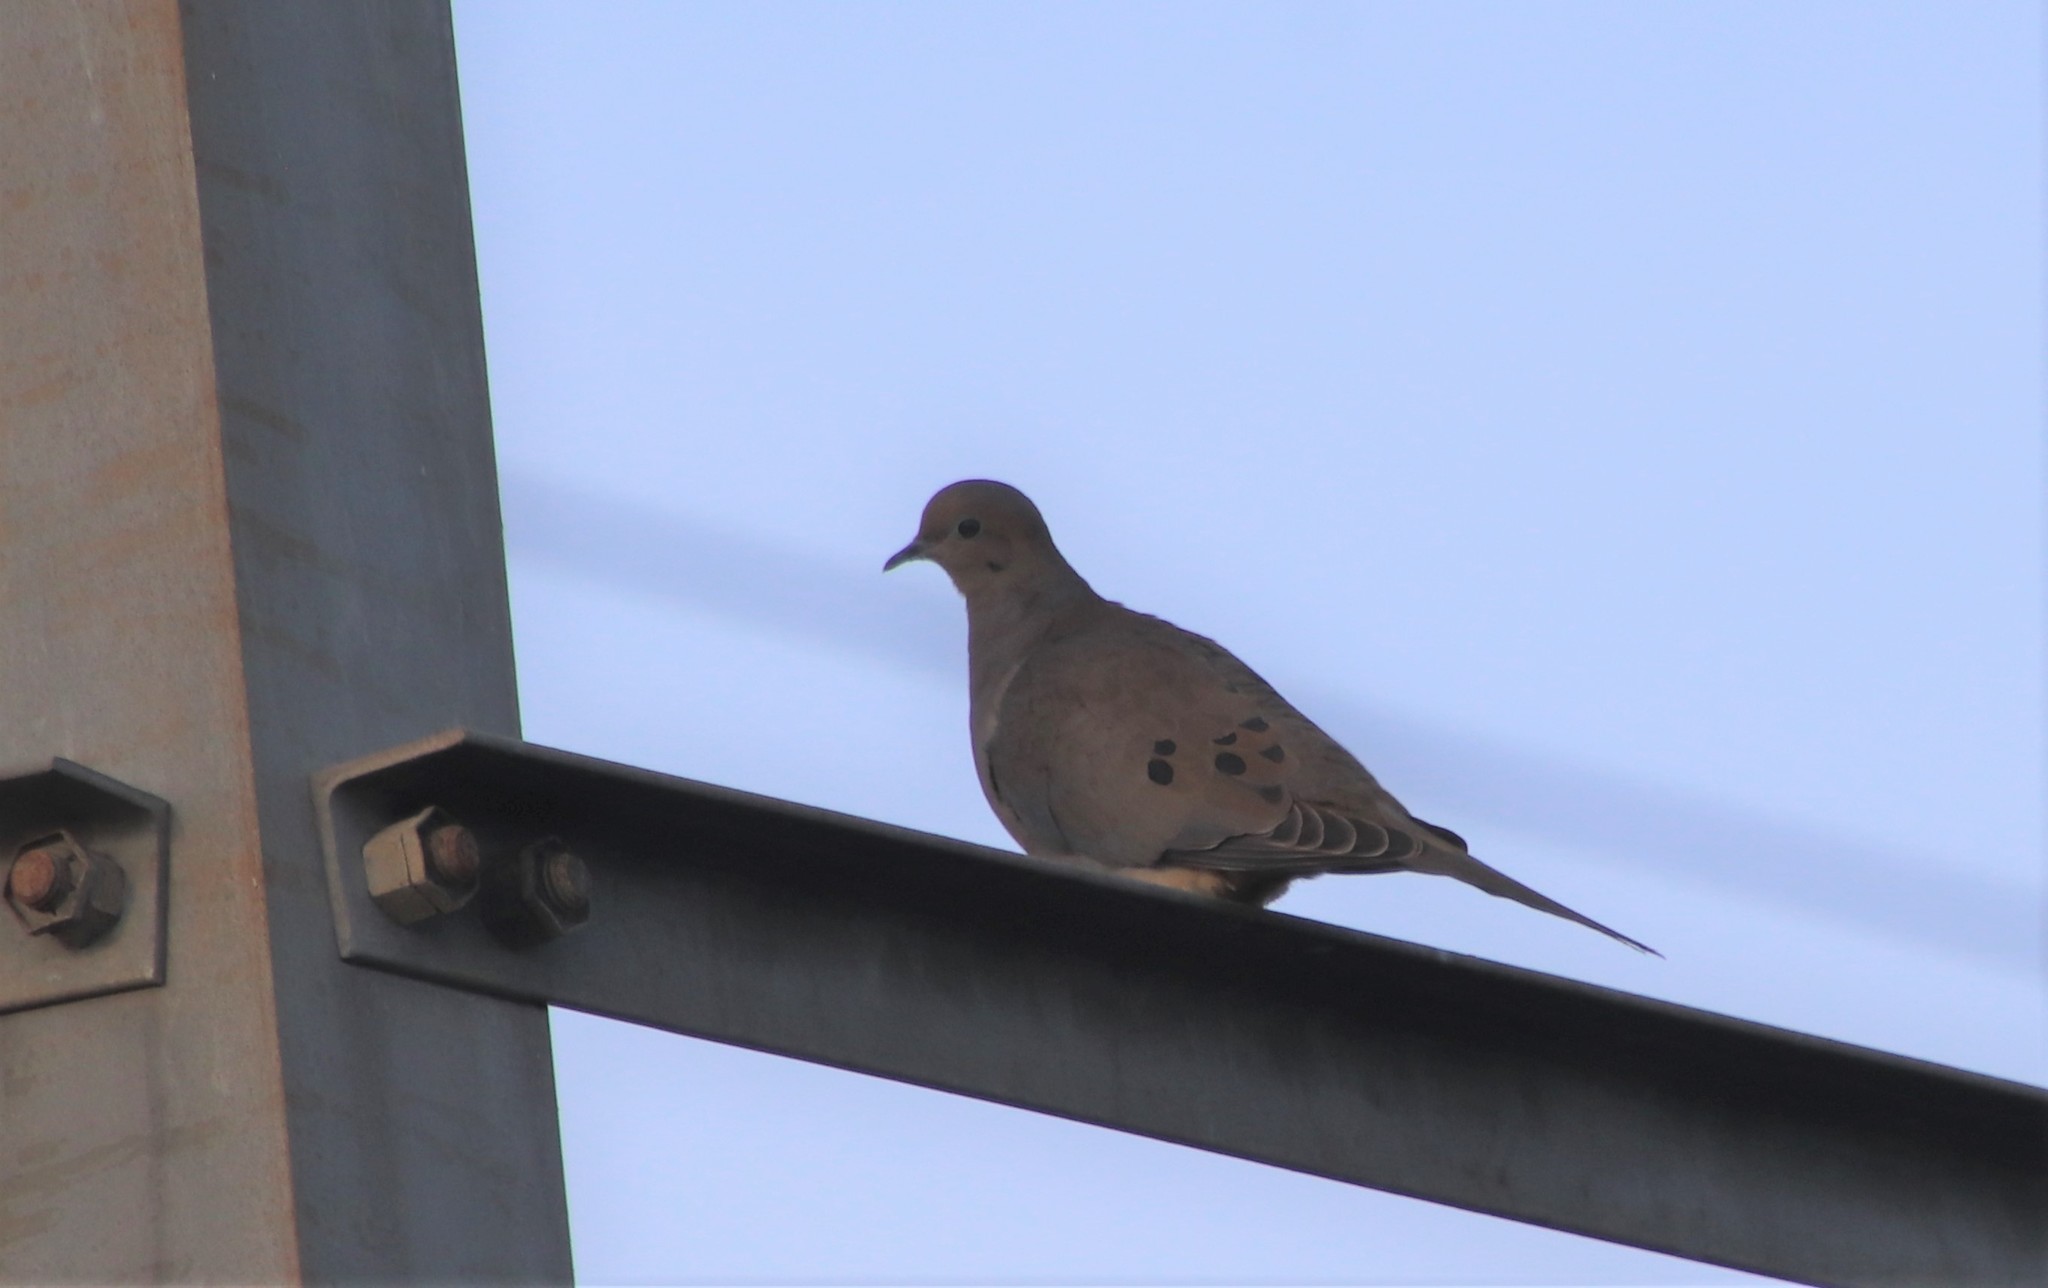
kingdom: Animalia
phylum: Chordata
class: Aves
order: Columbiformes
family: Columbidae
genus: Zenaida
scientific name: Zenaida macroura
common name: Mourning dove
